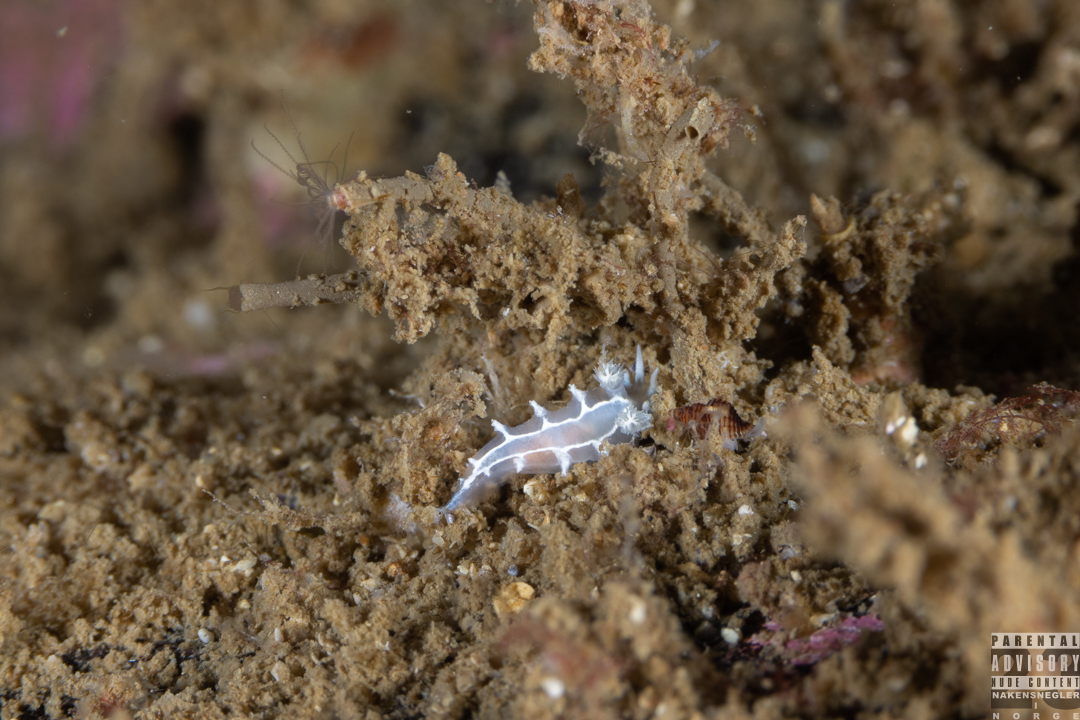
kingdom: Animalia
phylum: Mollusca
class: Gastropoda
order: Nudibranchia
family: Tritoniidae
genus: Duvaucelia
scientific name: Duvaucelia lineata
